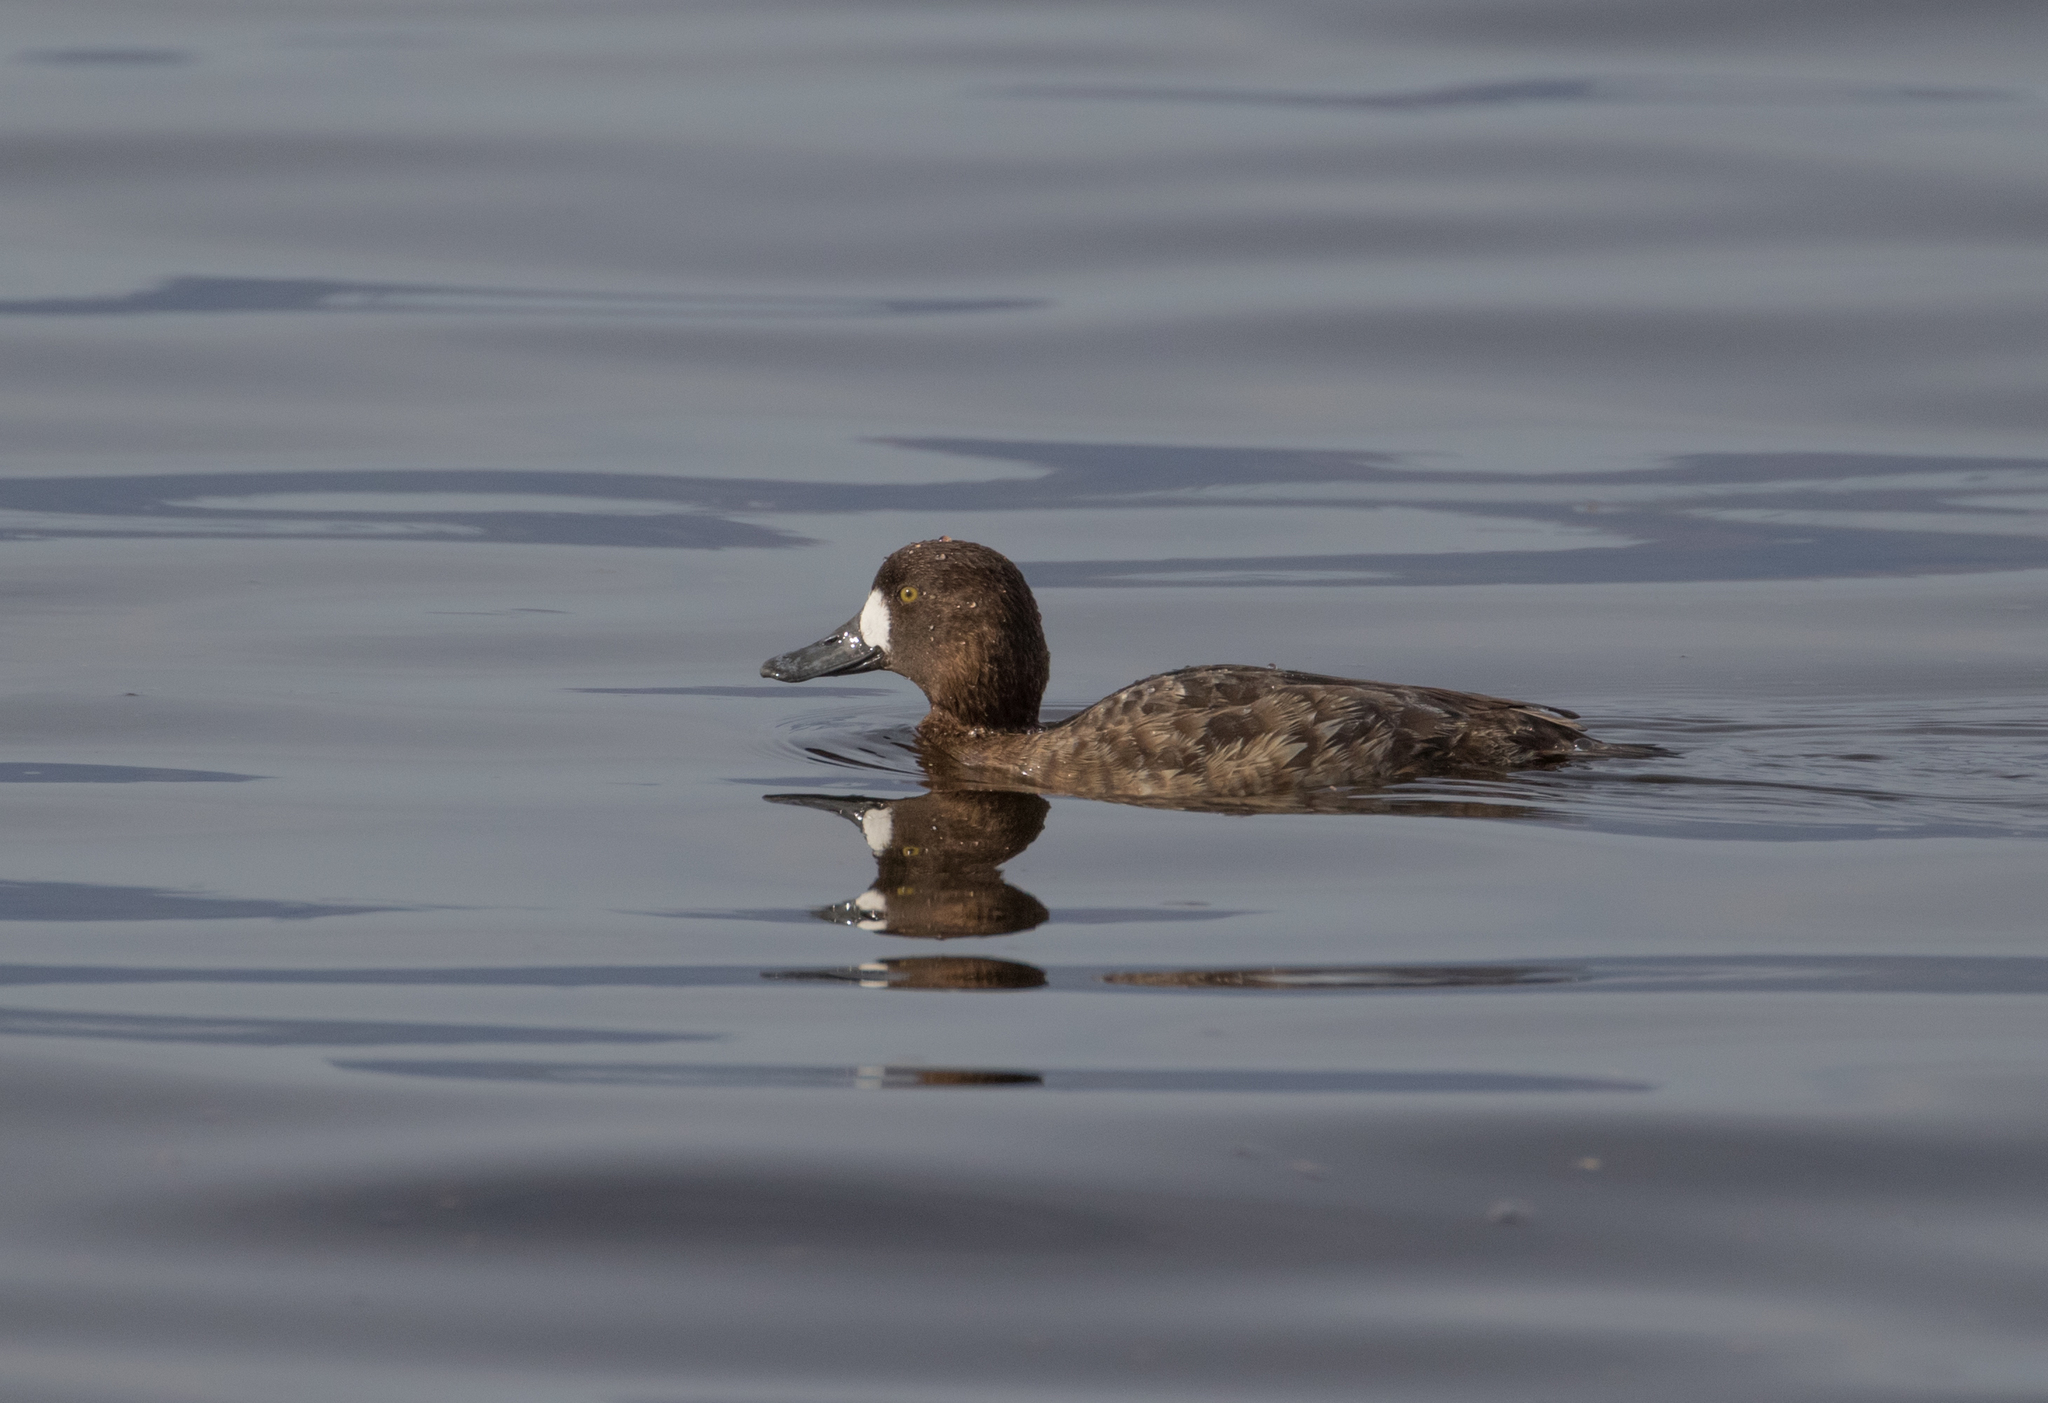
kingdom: Animalia
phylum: Chordata
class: Aves
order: Anseriformes
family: Anatidae
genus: Aythya
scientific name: Aythya affinis
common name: Lesser scaup
